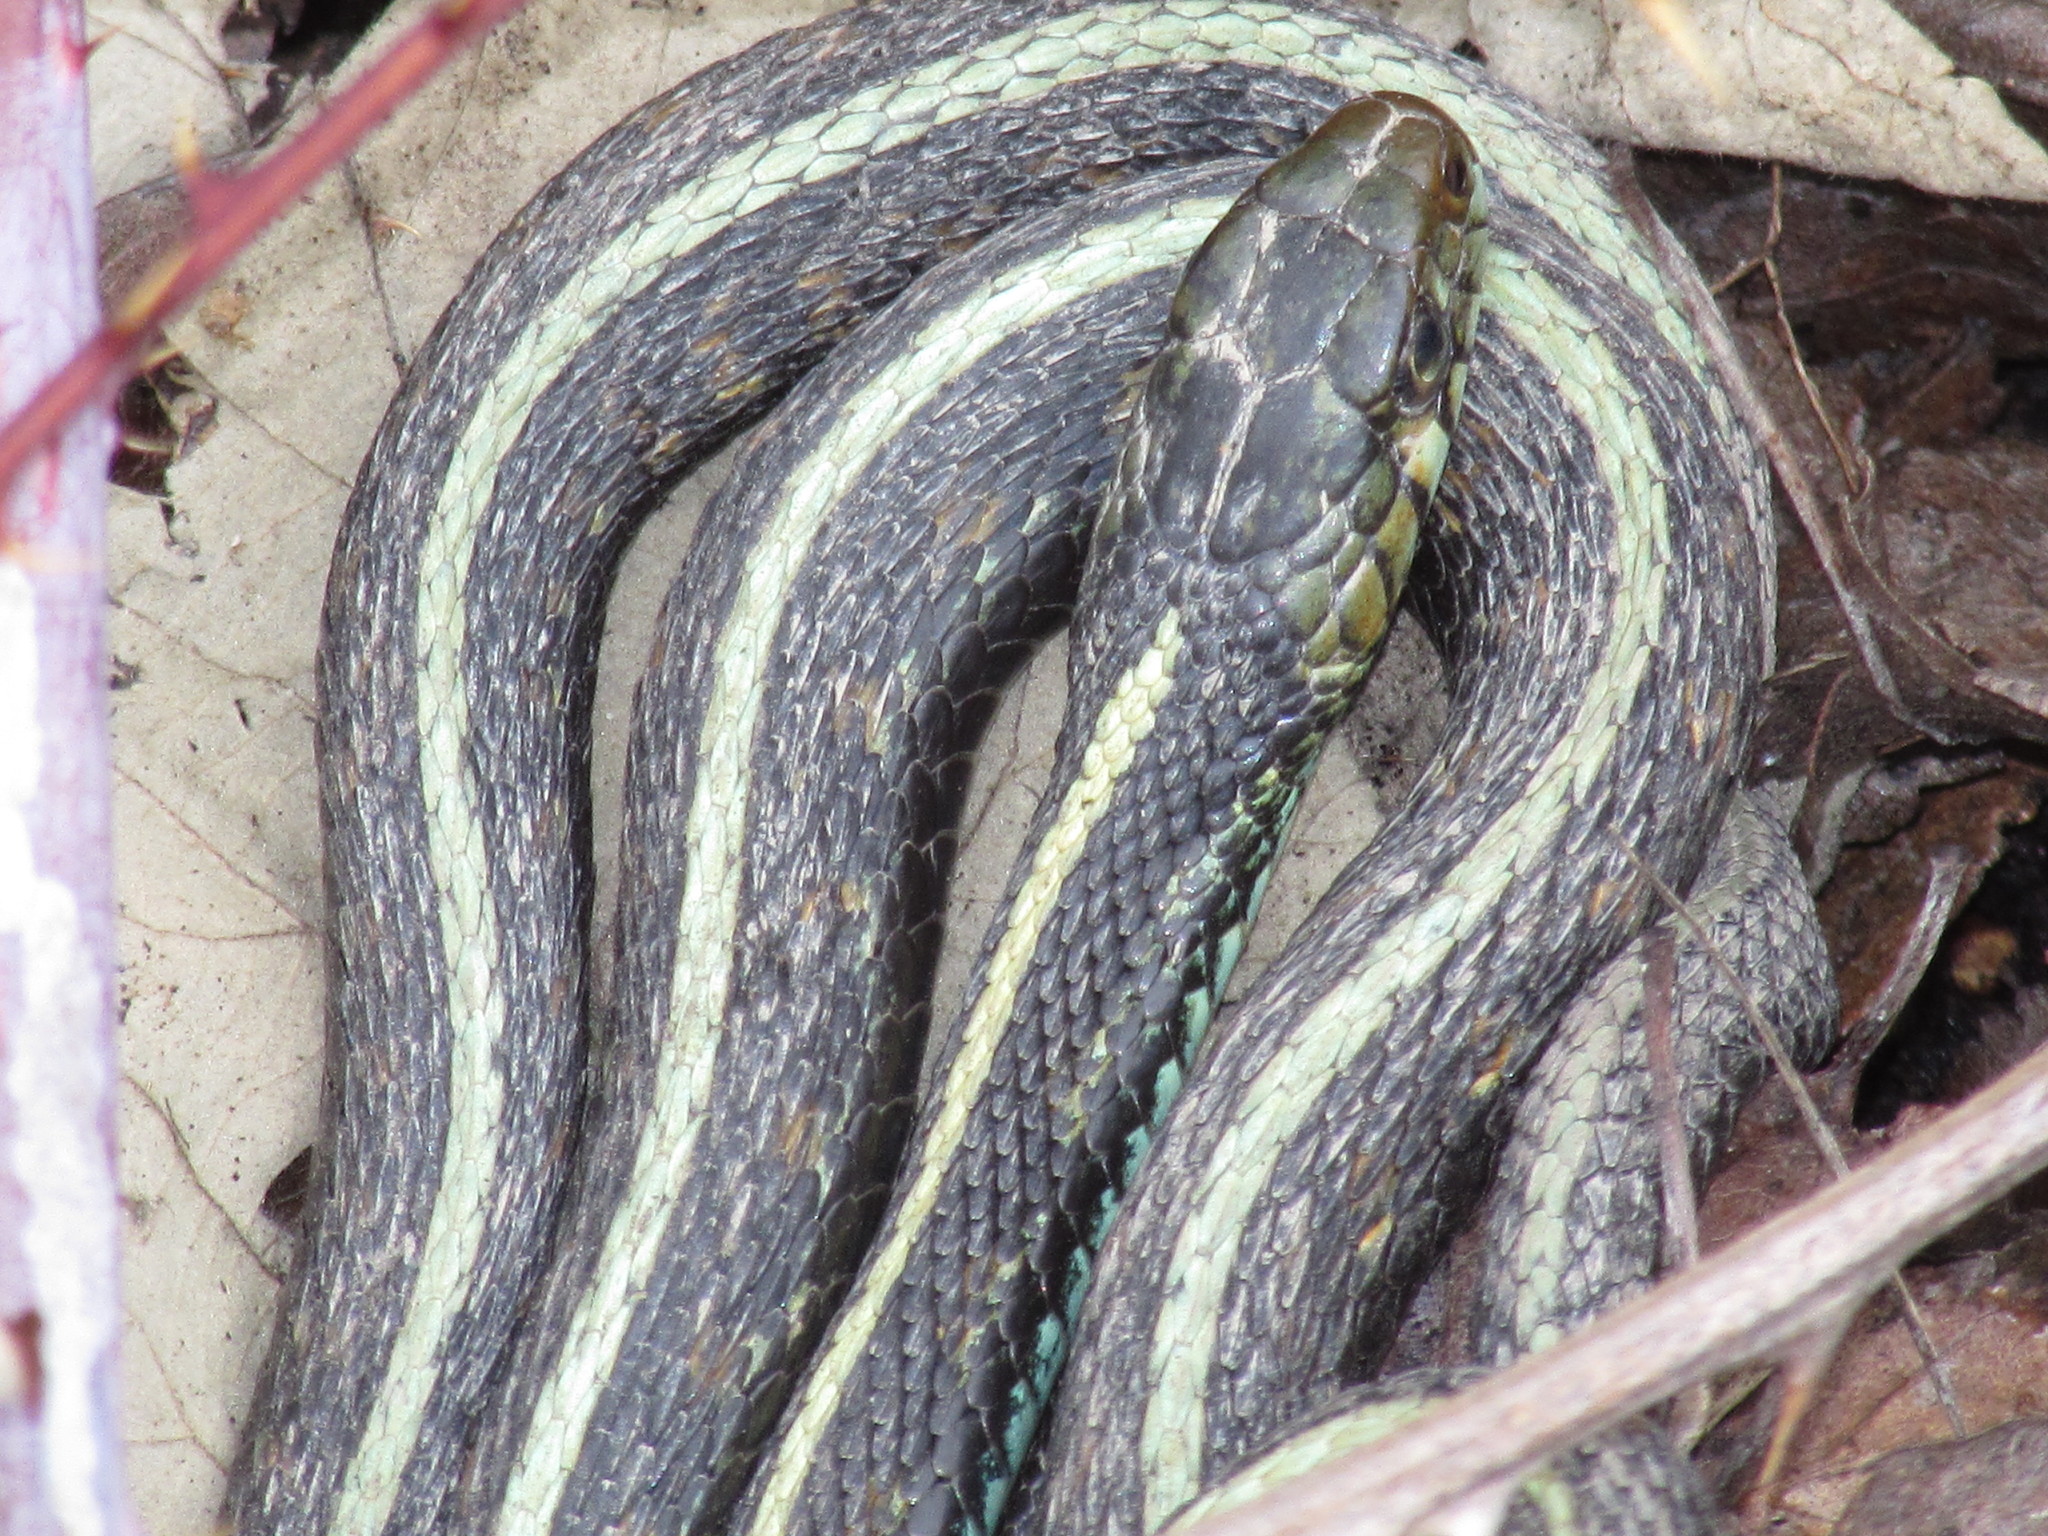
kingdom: Animalia
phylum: Chordata
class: Squamata
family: Colubridae
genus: Thamnophis
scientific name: Thamnophis sirtalis
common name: Common garter snake
